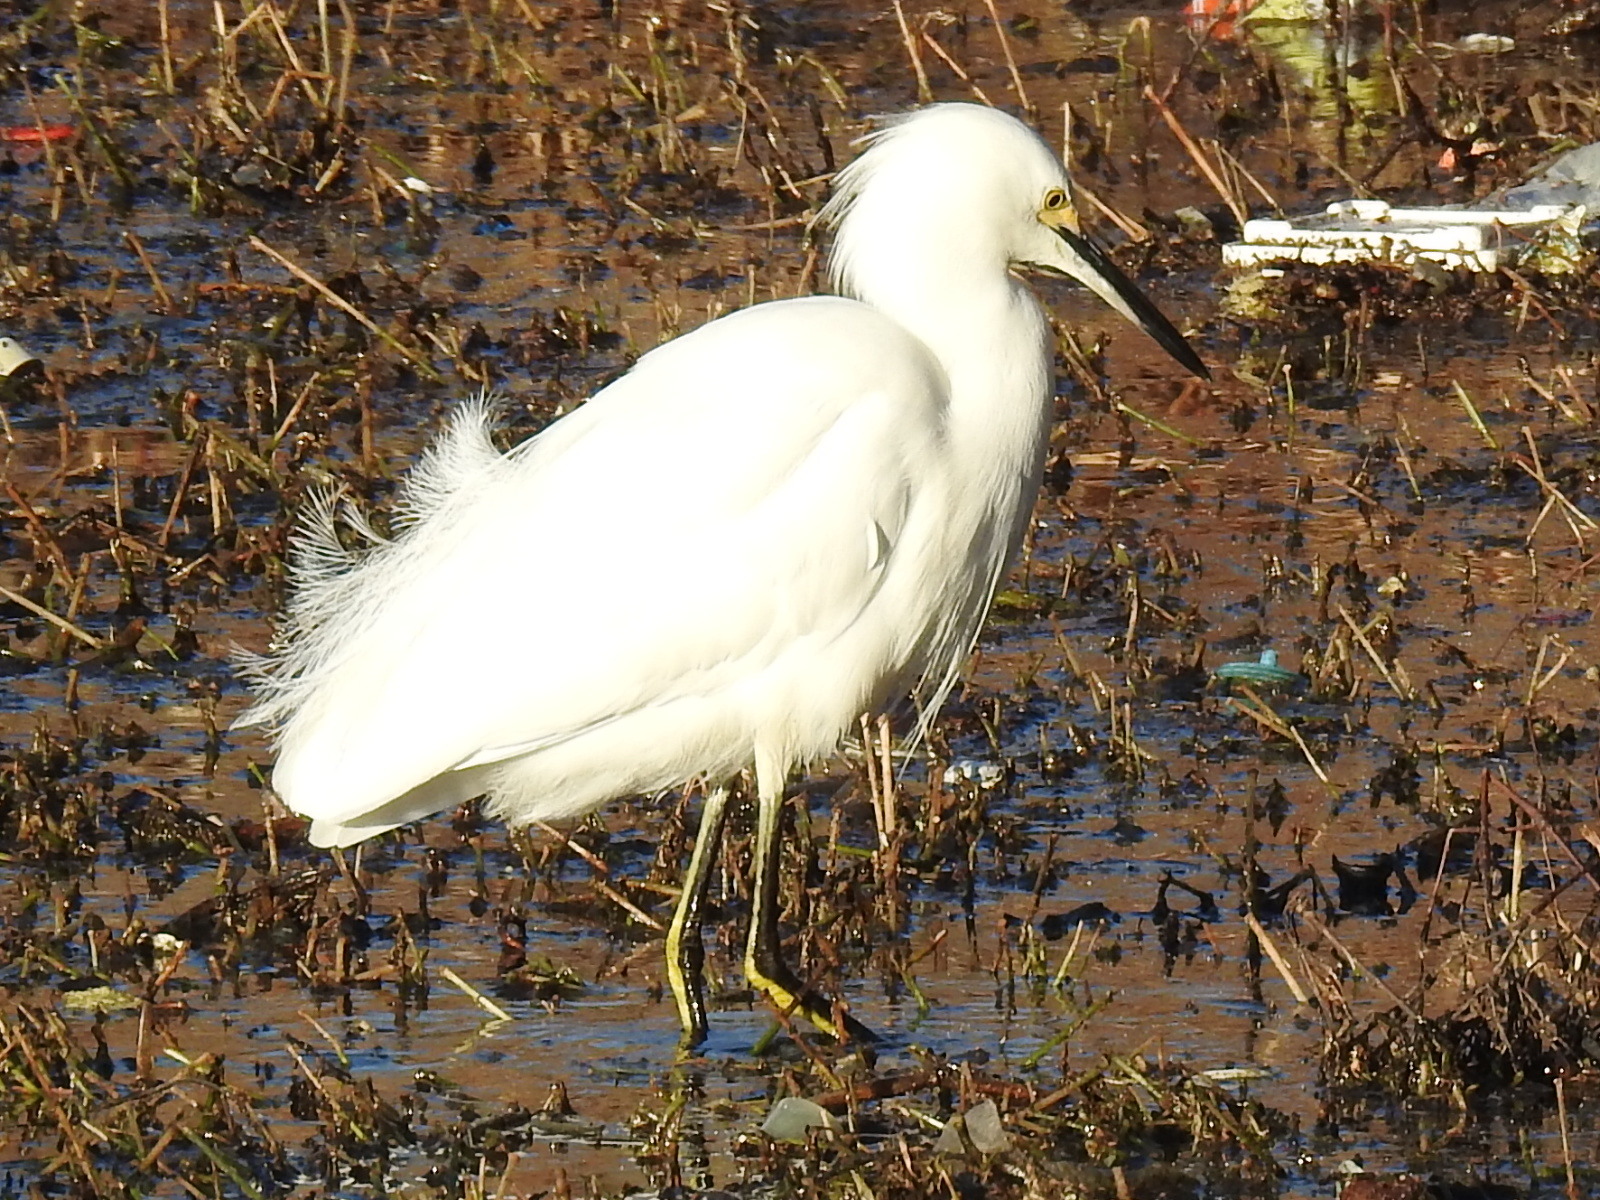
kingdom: Animalia
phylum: Chordata
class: Aves
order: Pelecaniformes
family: Ardeidae
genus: Egretta
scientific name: Egretta thula
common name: Snowy egret
